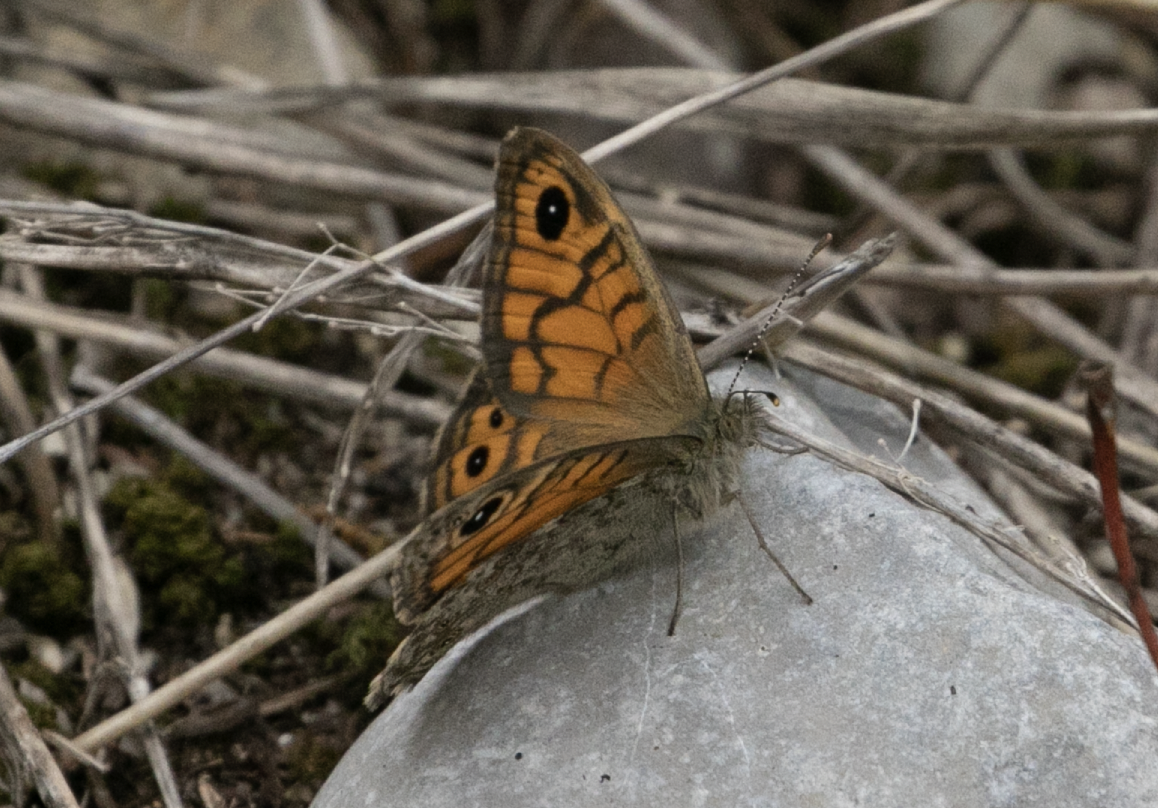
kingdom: Animalia
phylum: Arthropoda
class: Insecta
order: Lepidoptera
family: Nymphalidae
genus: Pararge
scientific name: Pararge Lasiommata megera
